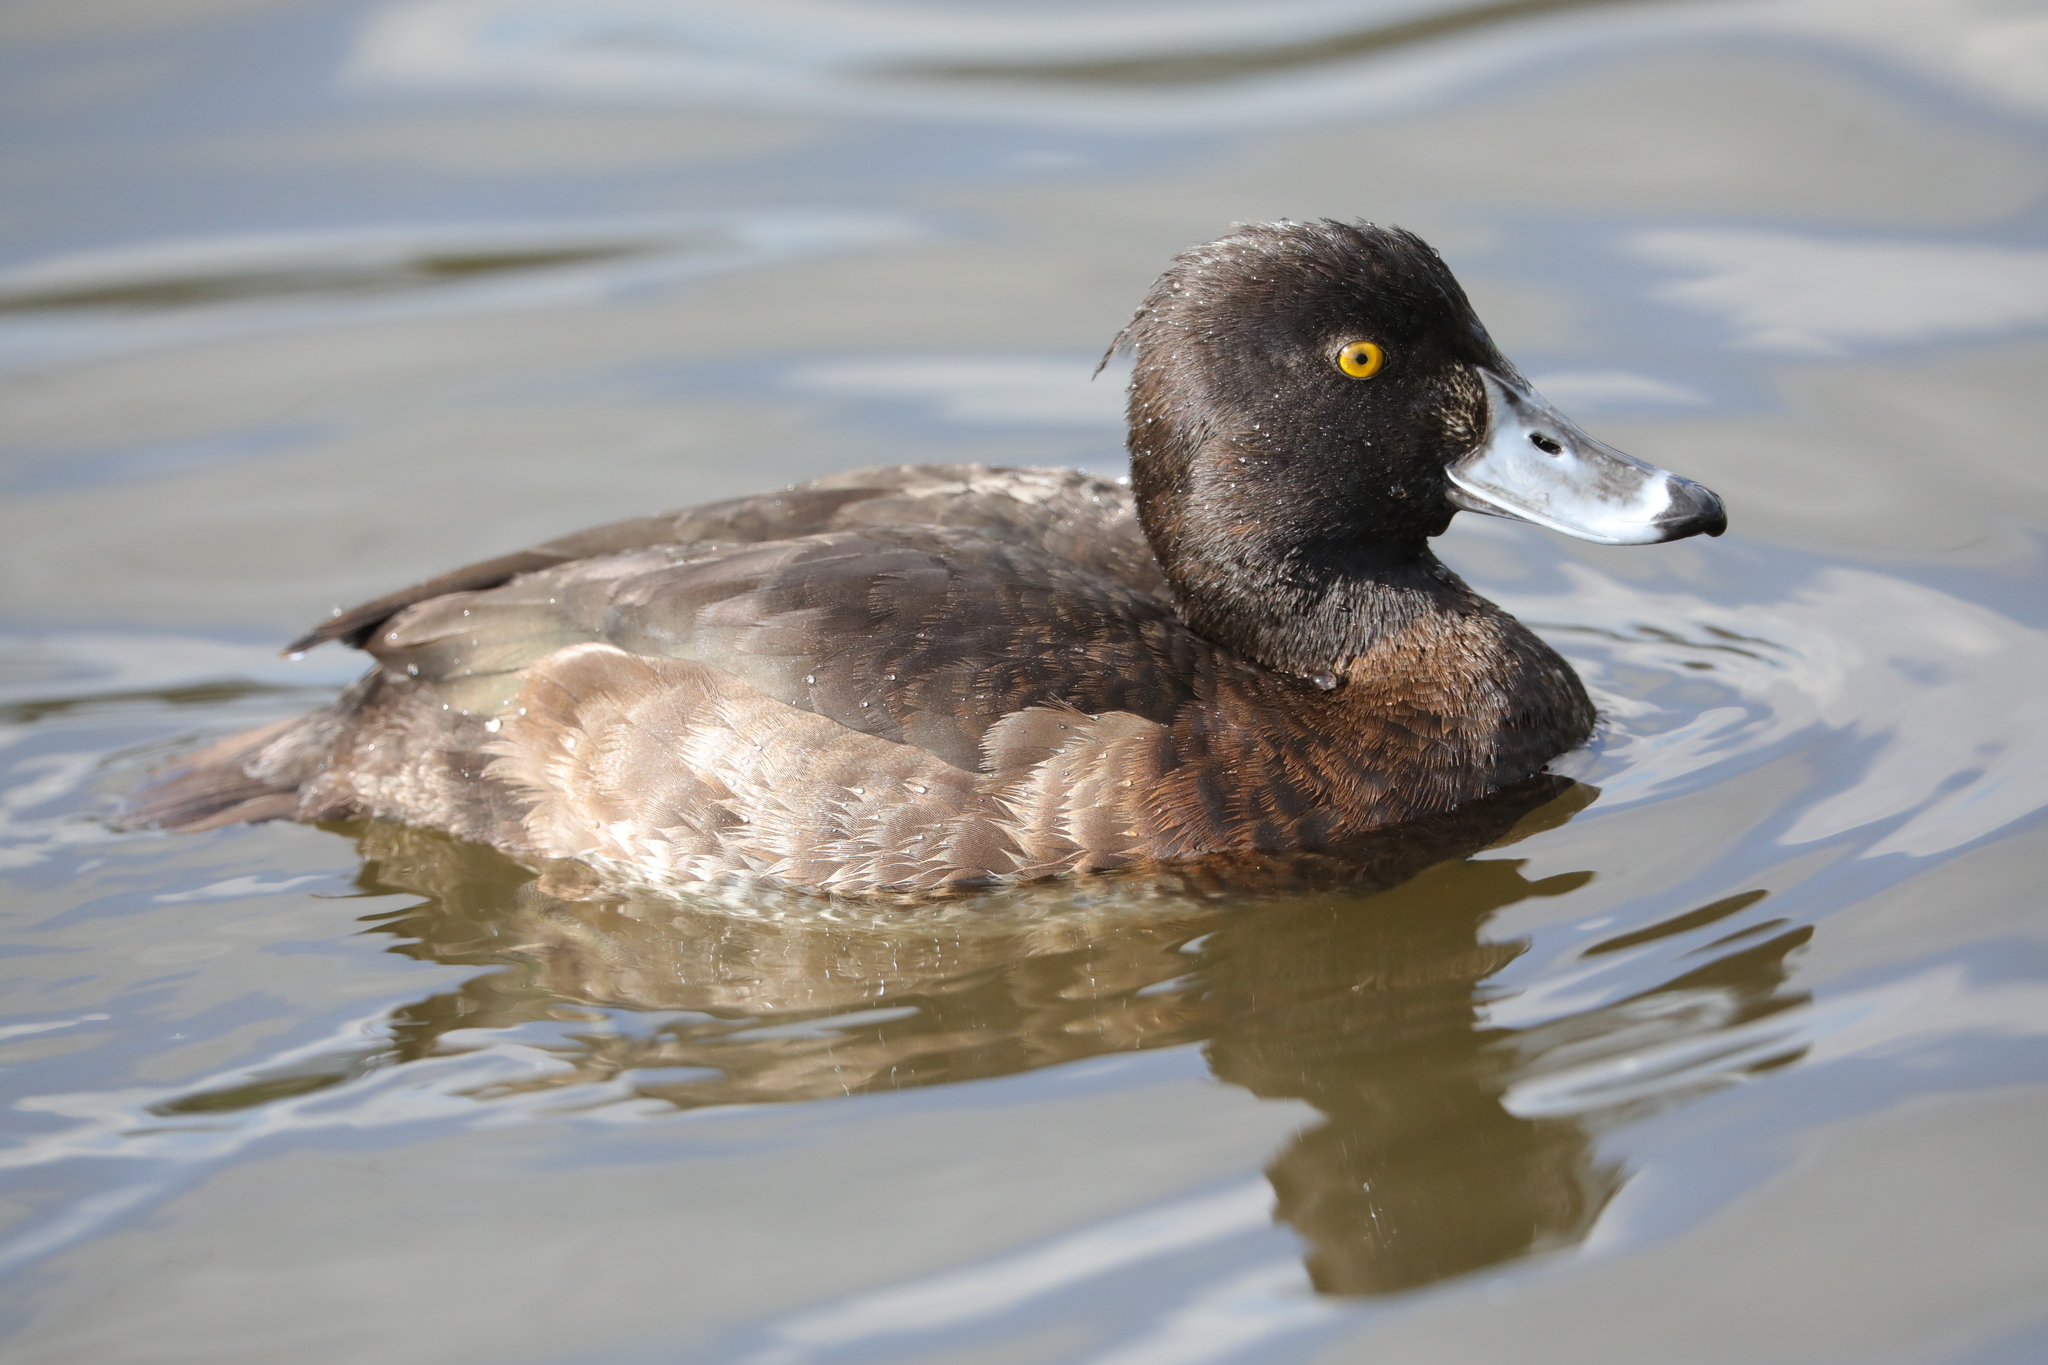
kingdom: Animalia
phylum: Chordata
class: Aves
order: Anseriformes
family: Anatidae
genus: Aythya
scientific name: Aythya fuligula
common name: Tufted duck
